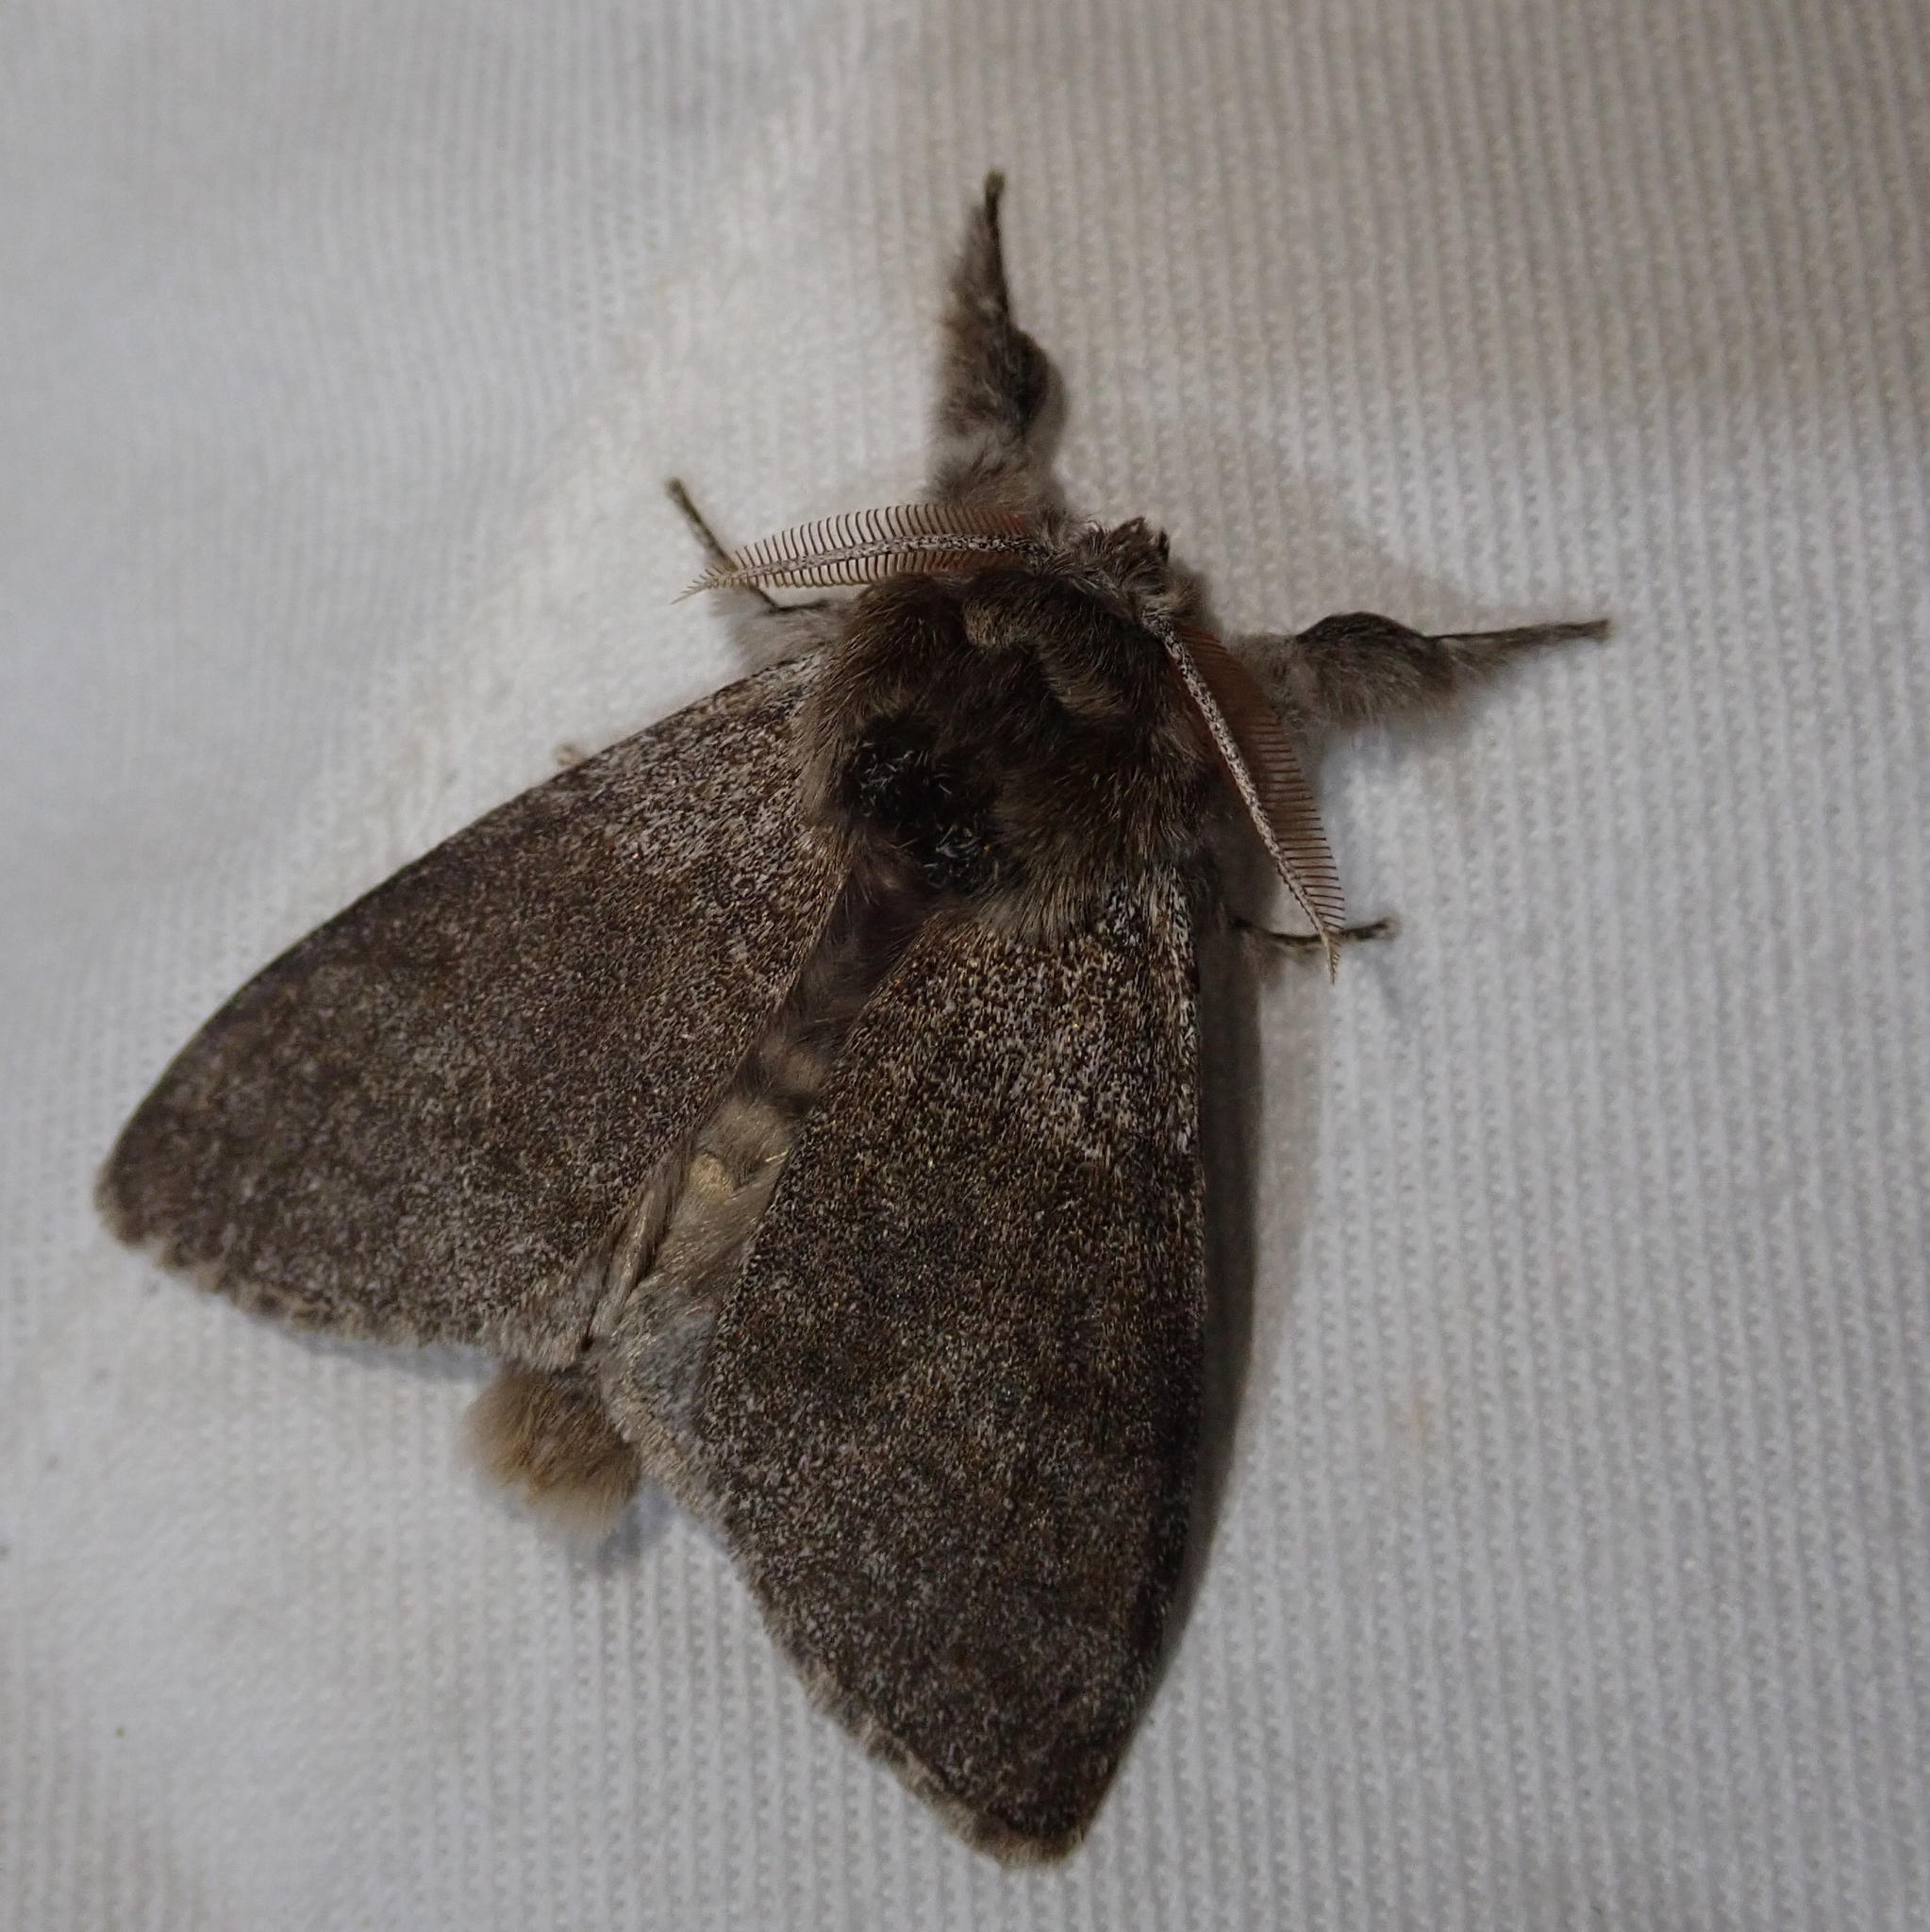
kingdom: Animalia
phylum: Arthropoda
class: Insecta
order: Lepidoptera
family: Erebidae
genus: Calliteara
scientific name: Calliteara pudibunda
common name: Pale tussock
